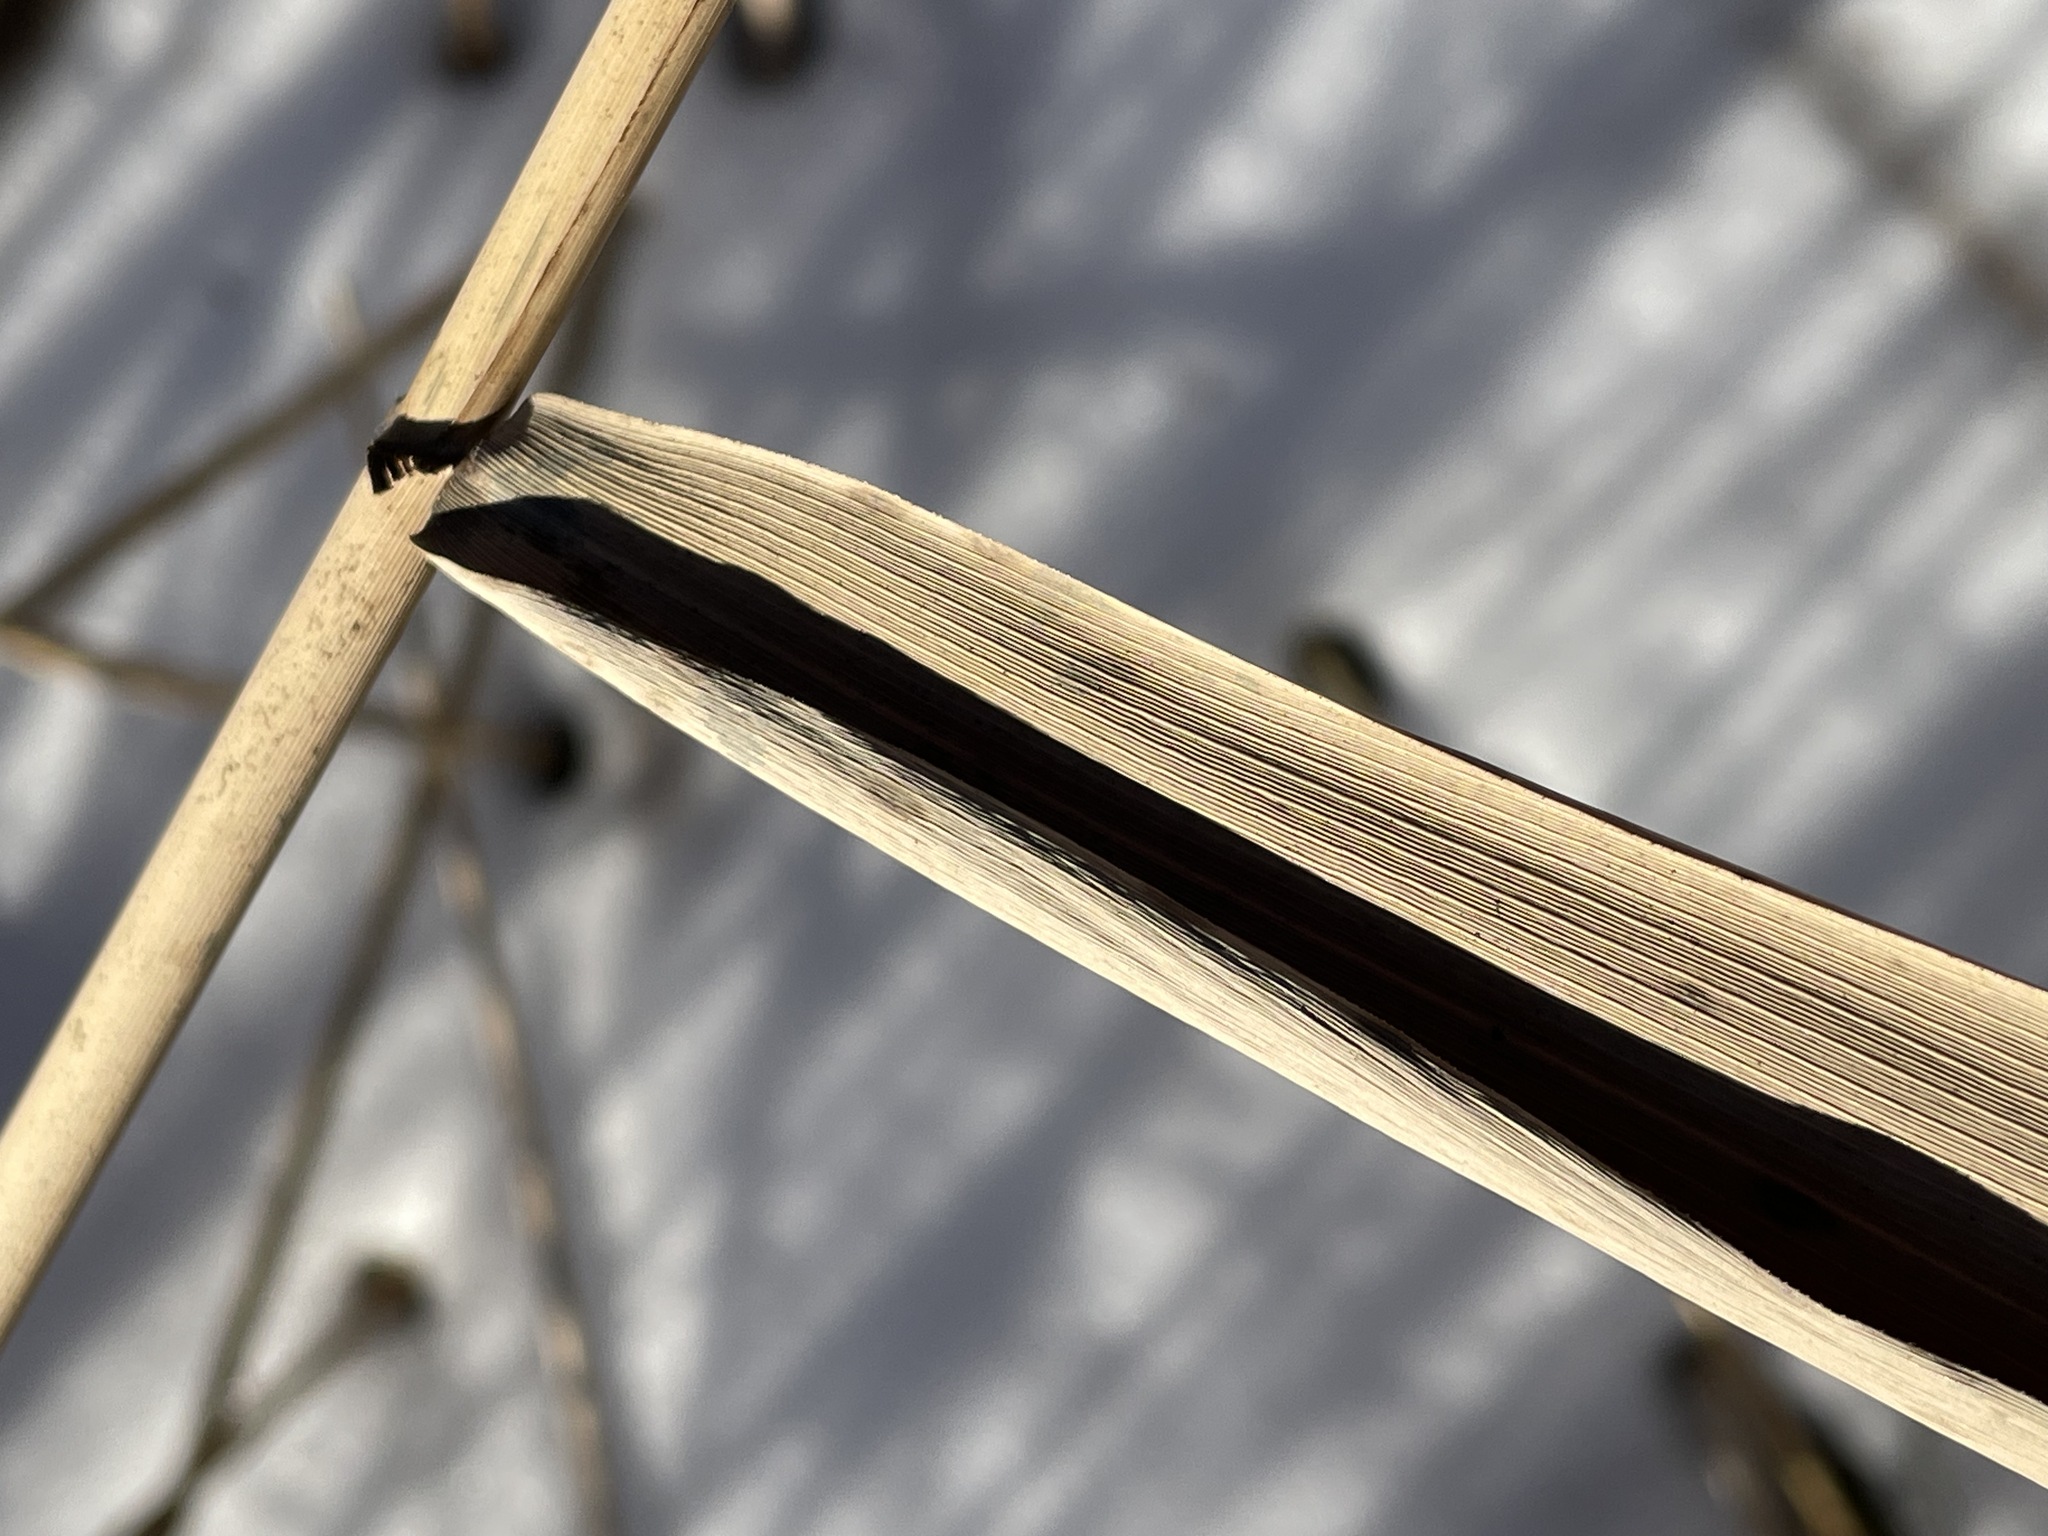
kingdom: Plantae
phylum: Tracheophyta
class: Liliopsida
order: Poales
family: Poaceae
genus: Phragmites
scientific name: Phragmites australis
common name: Common reed
